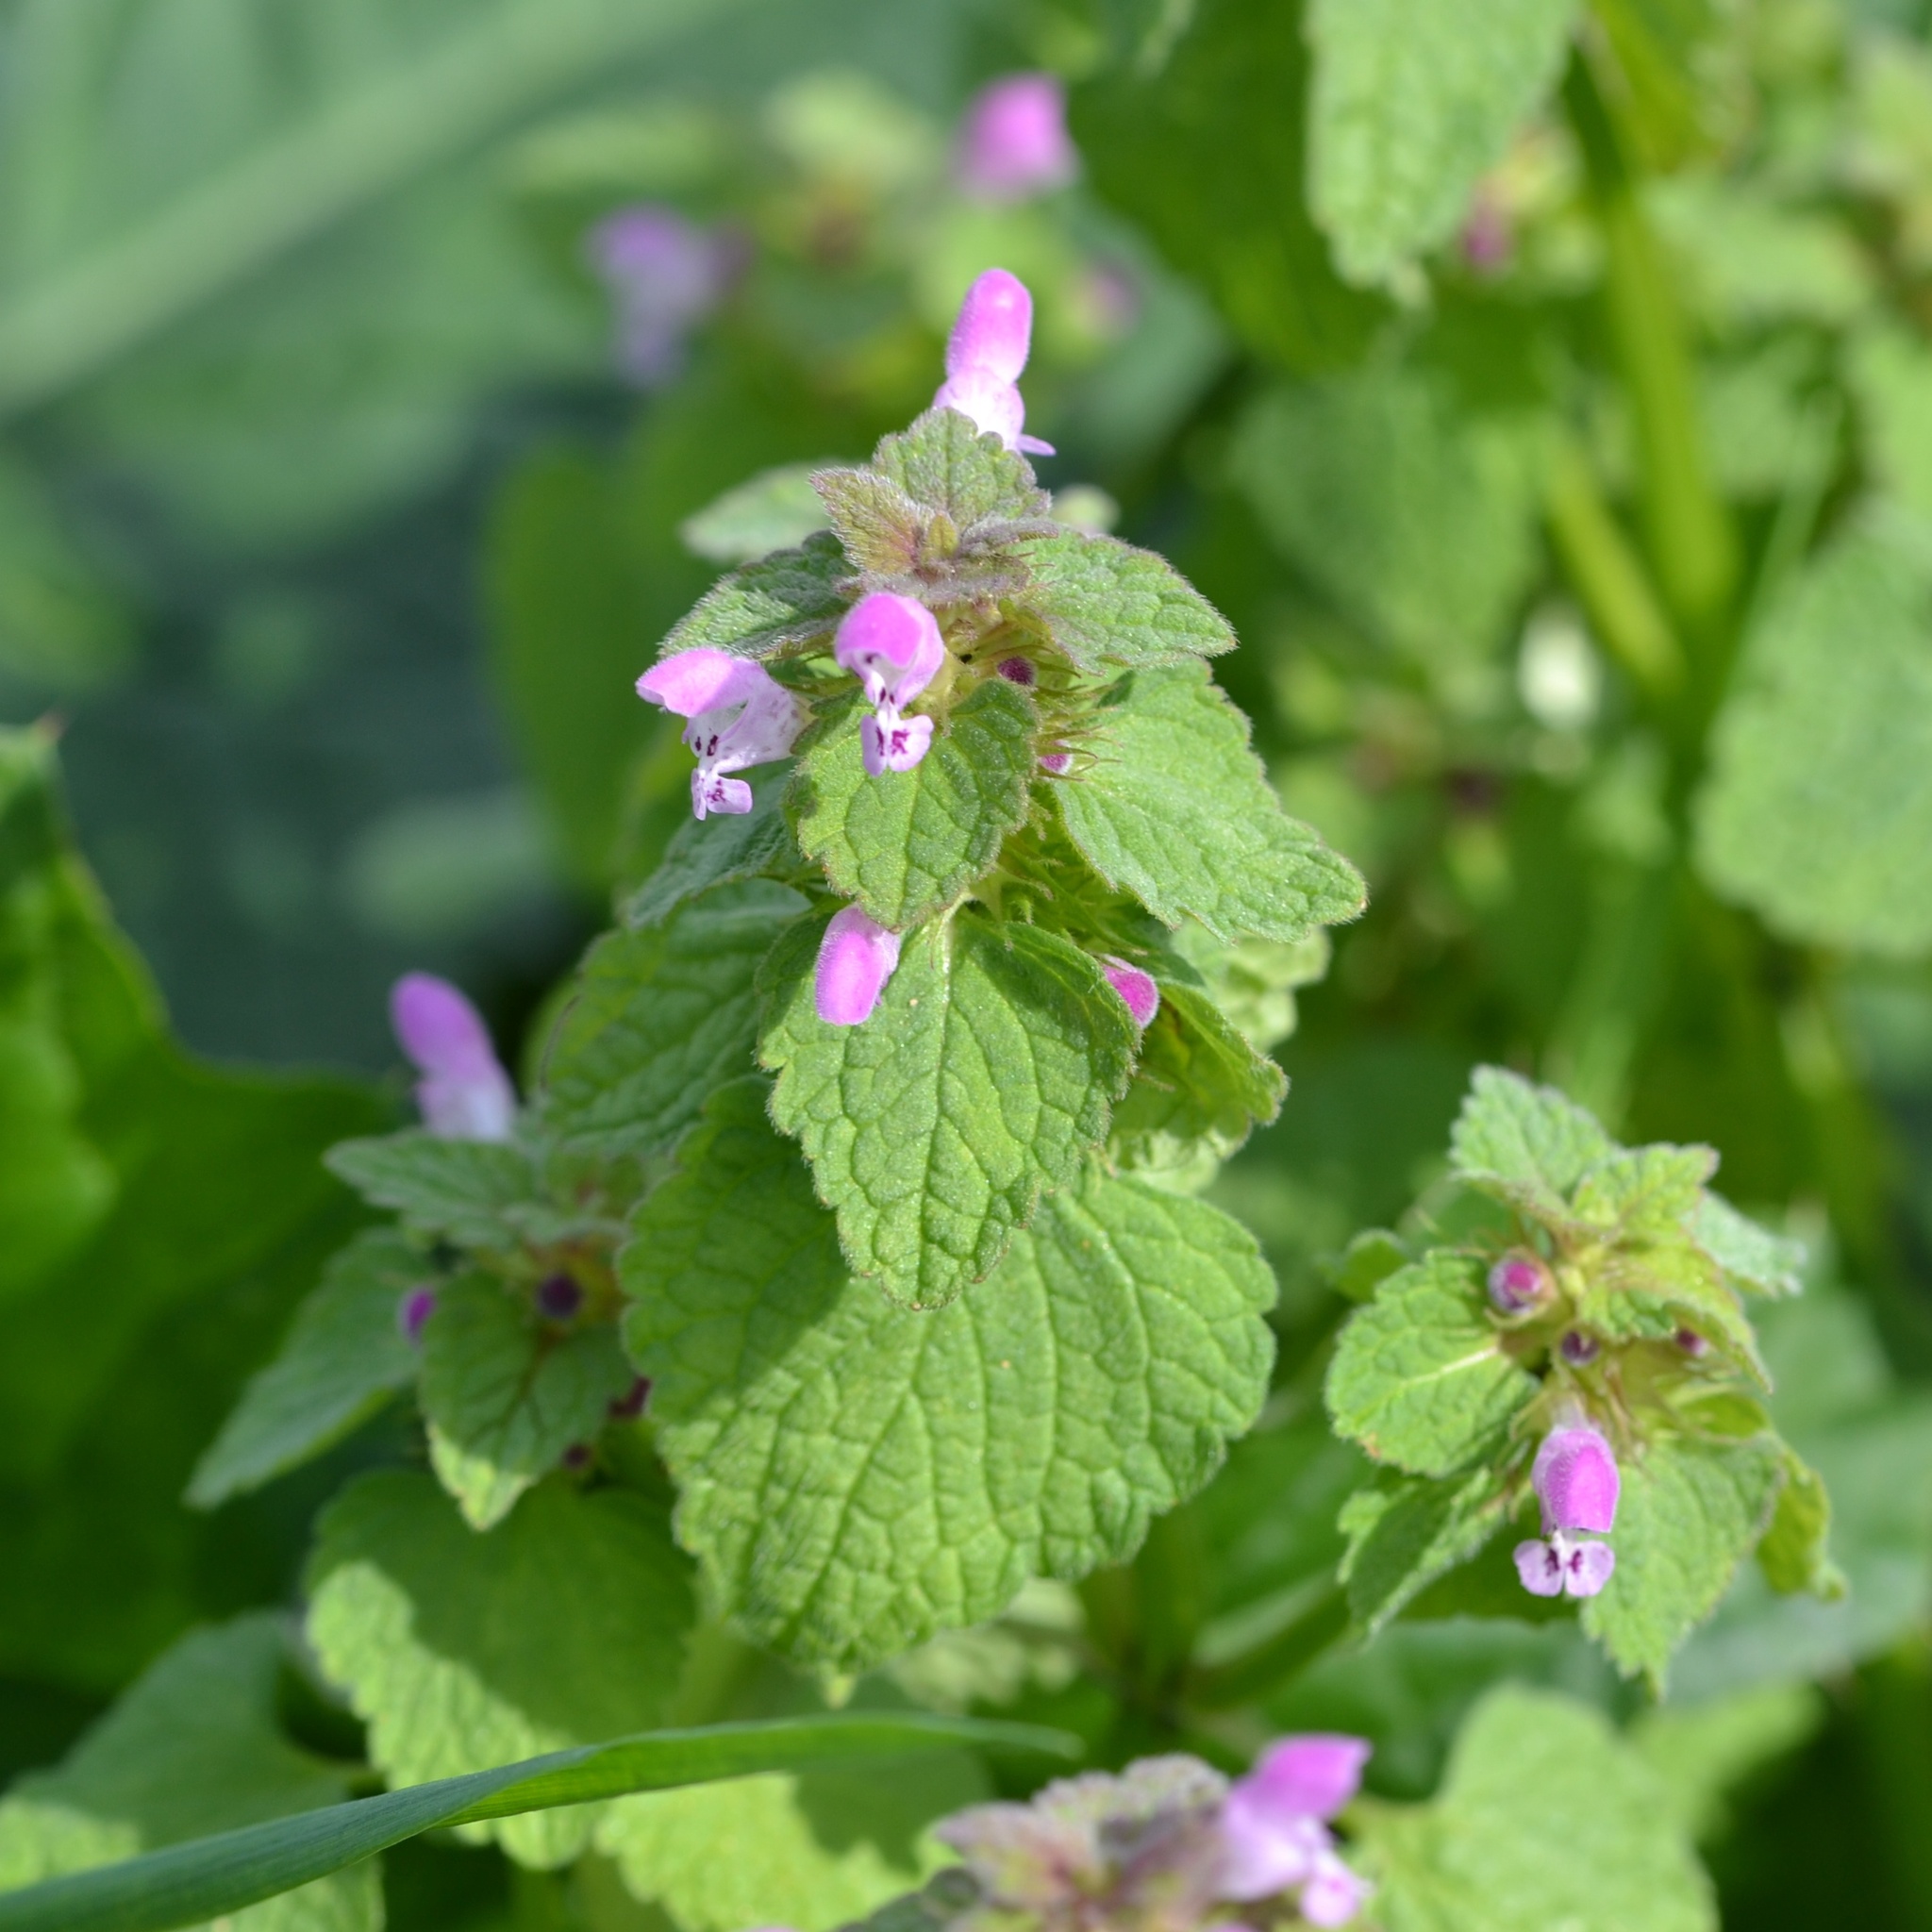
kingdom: Plantae
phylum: Tracheophyta
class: Magnoliopsida
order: Lamiales
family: Lamiaceae
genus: Lamium
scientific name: Lamium purpureum
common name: Red dead-nettle
